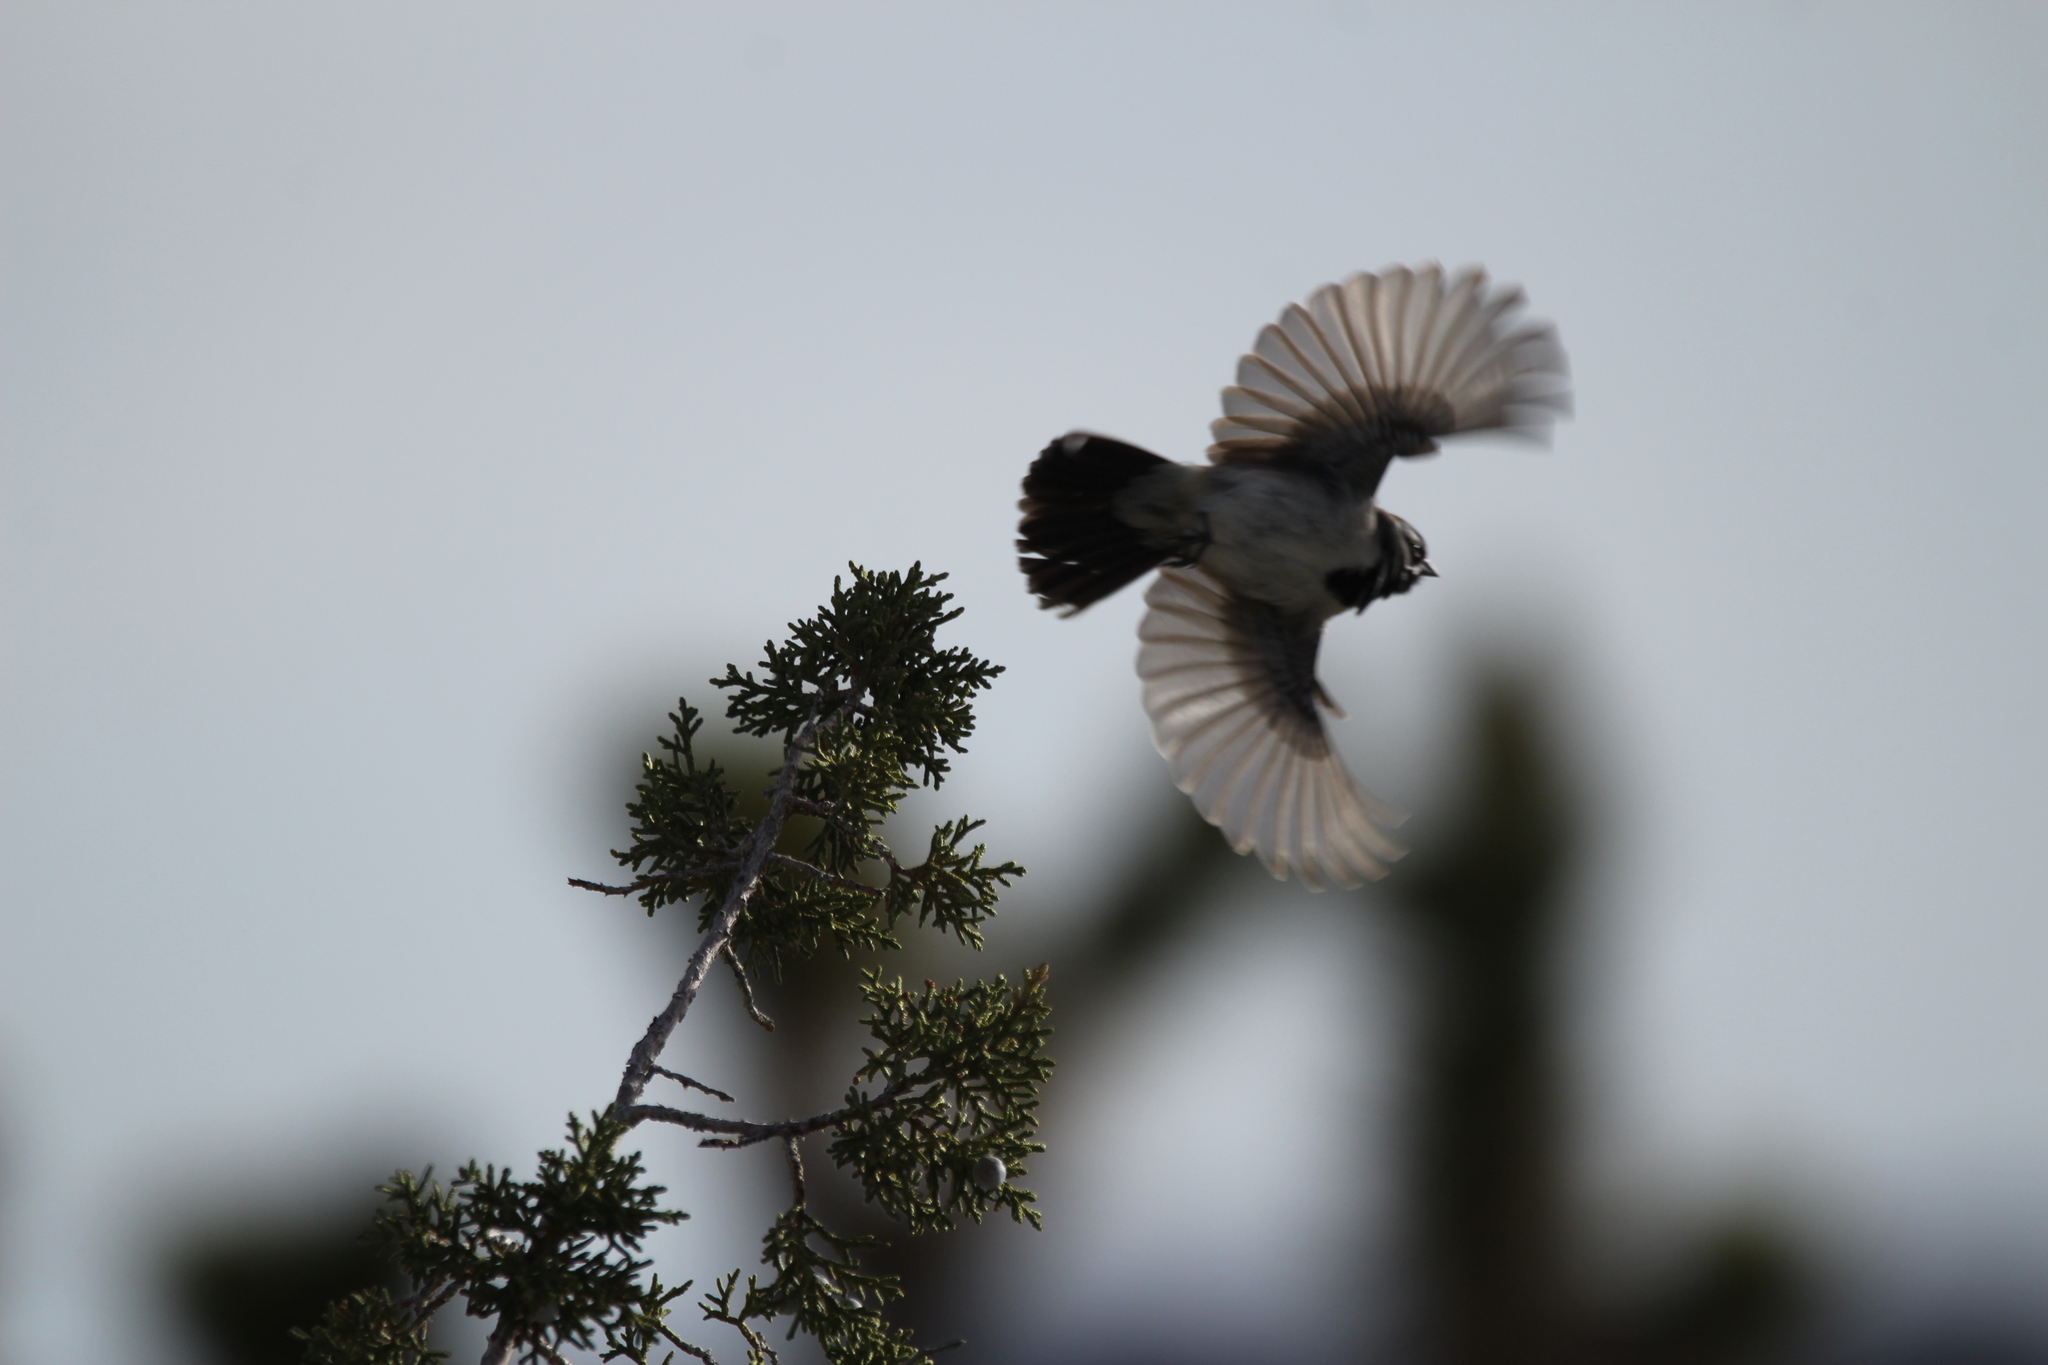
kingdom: Animalia
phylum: Chordata
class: Aves
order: Passeriformes
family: Passerellidae
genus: Amphispiza
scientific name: Amphispiza bilineata
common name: Black-throated sparrow
